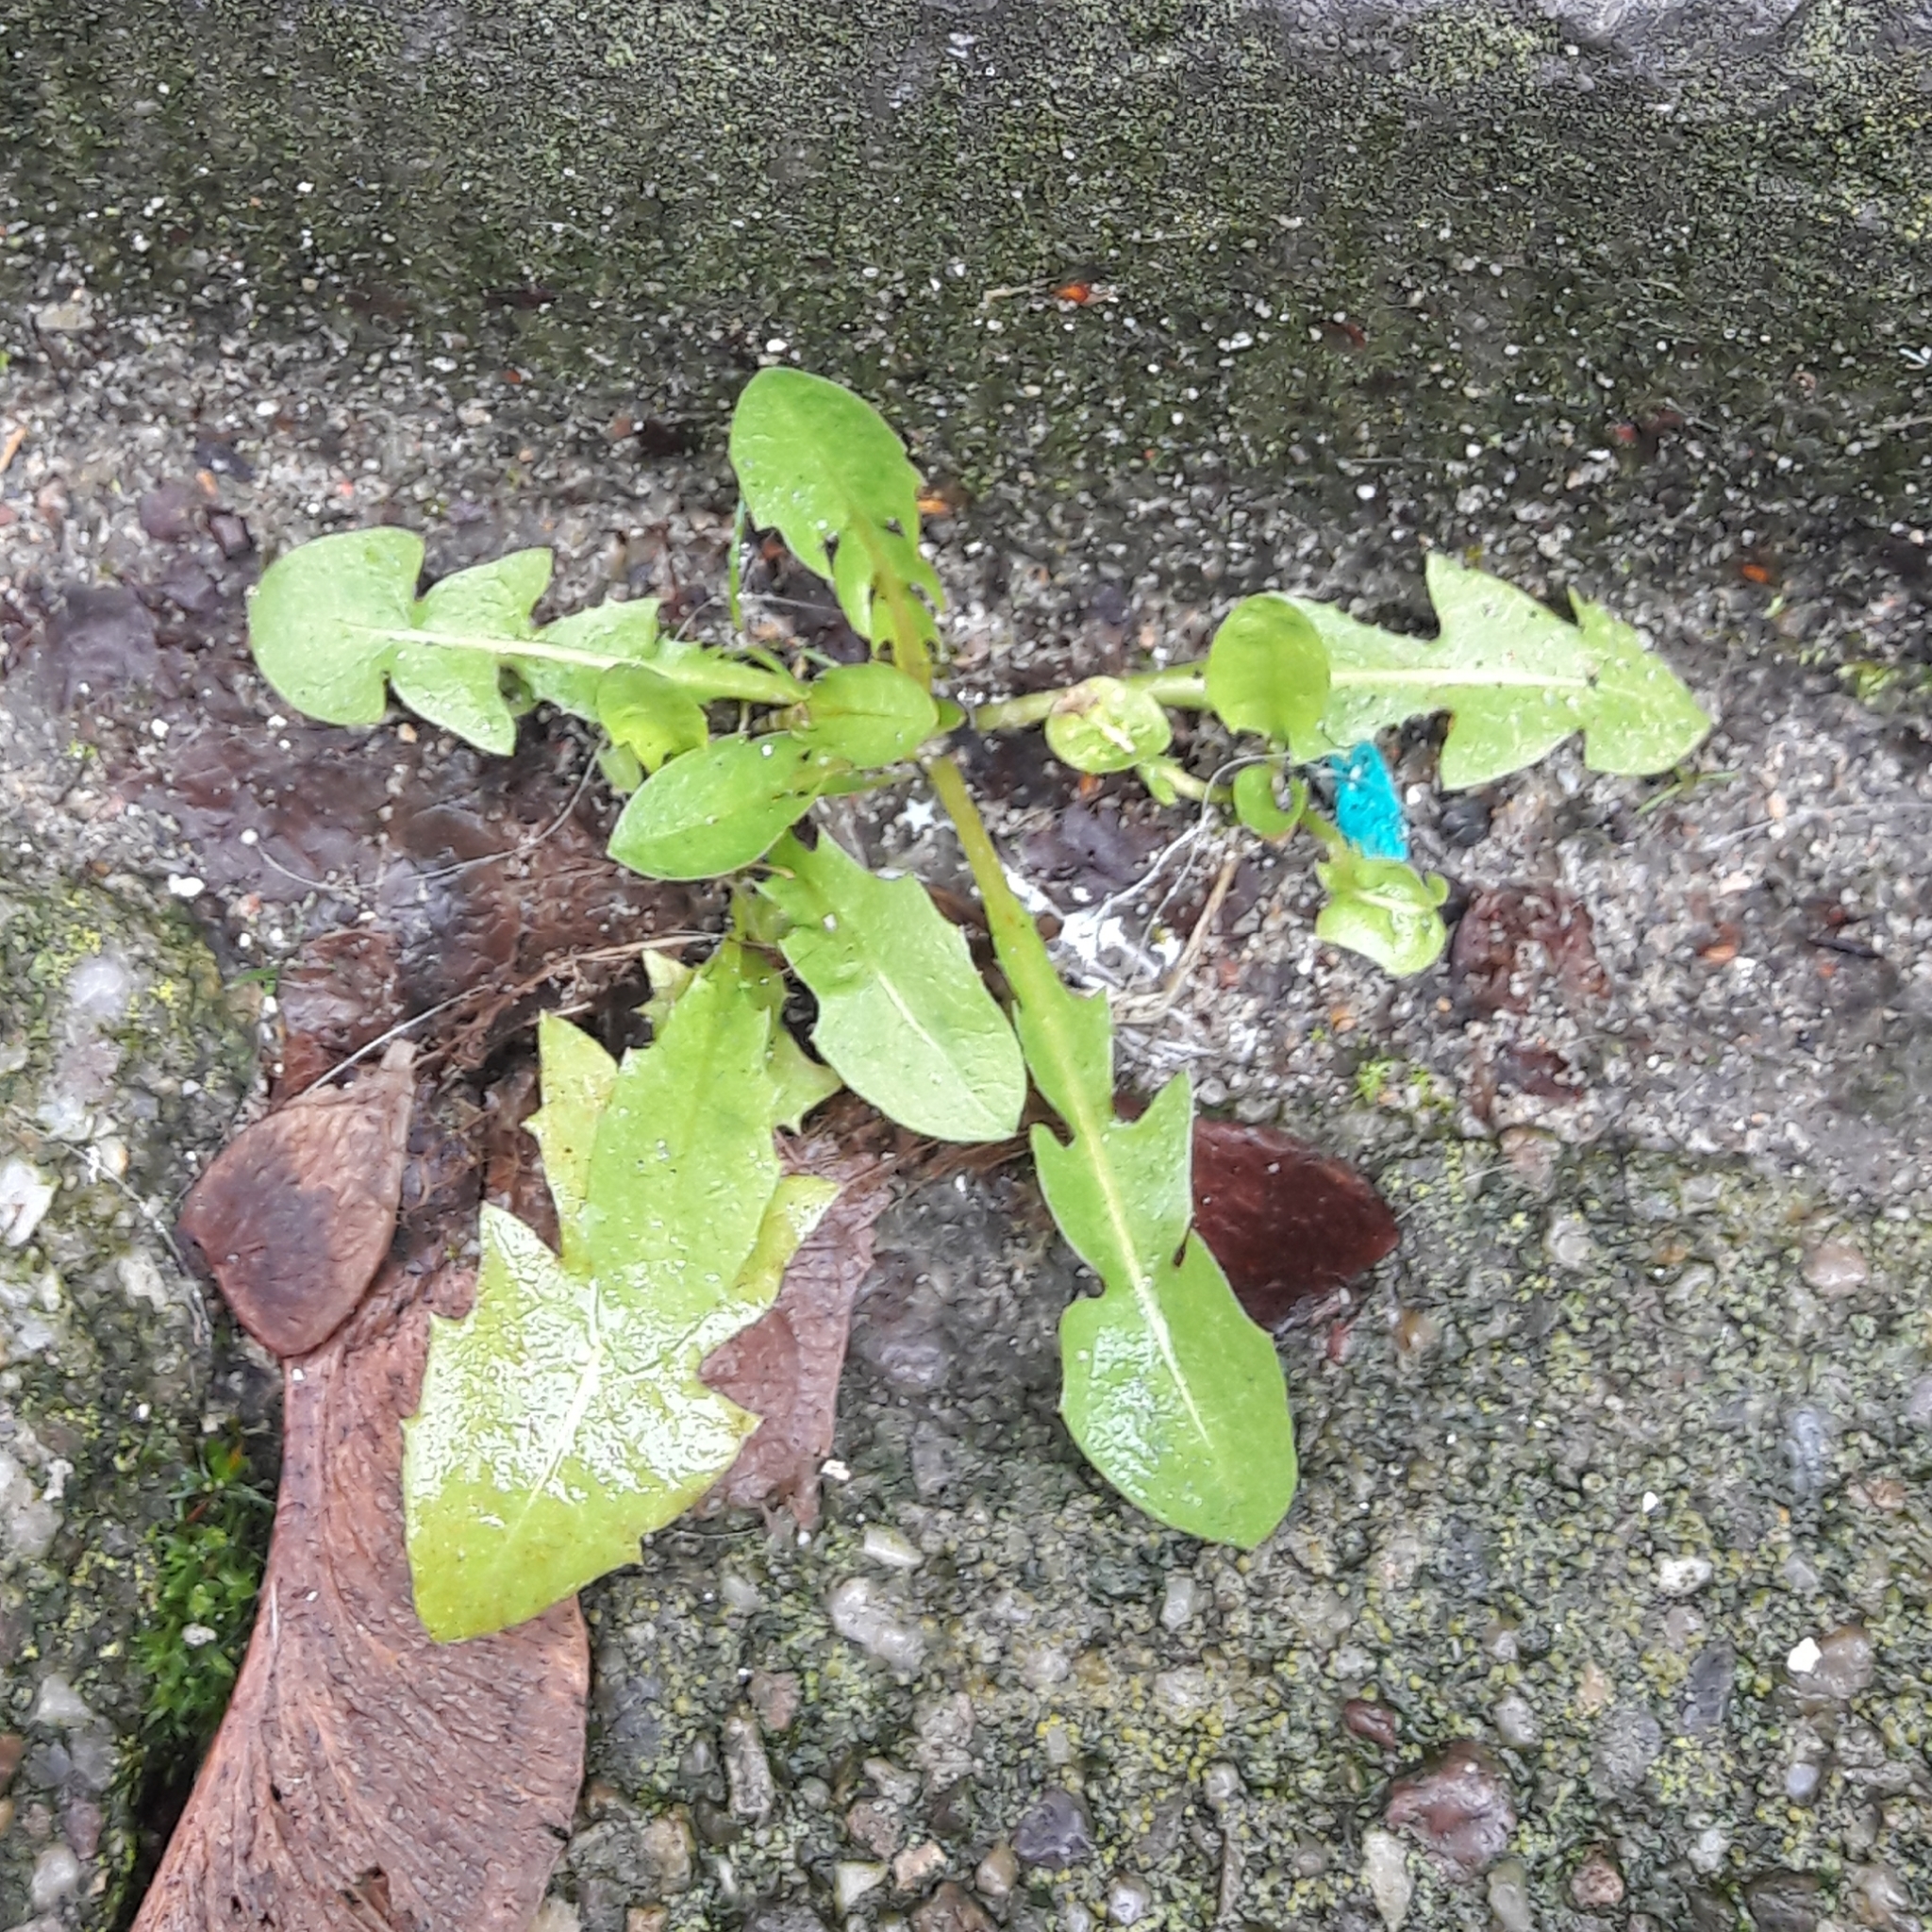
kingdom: Plantae
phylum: Tracheophyta
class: Magnoliopsida
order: Asterales
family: Asteraceae
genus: Taraxacum
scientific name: Taraxacum officinale
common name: Common dandelion
